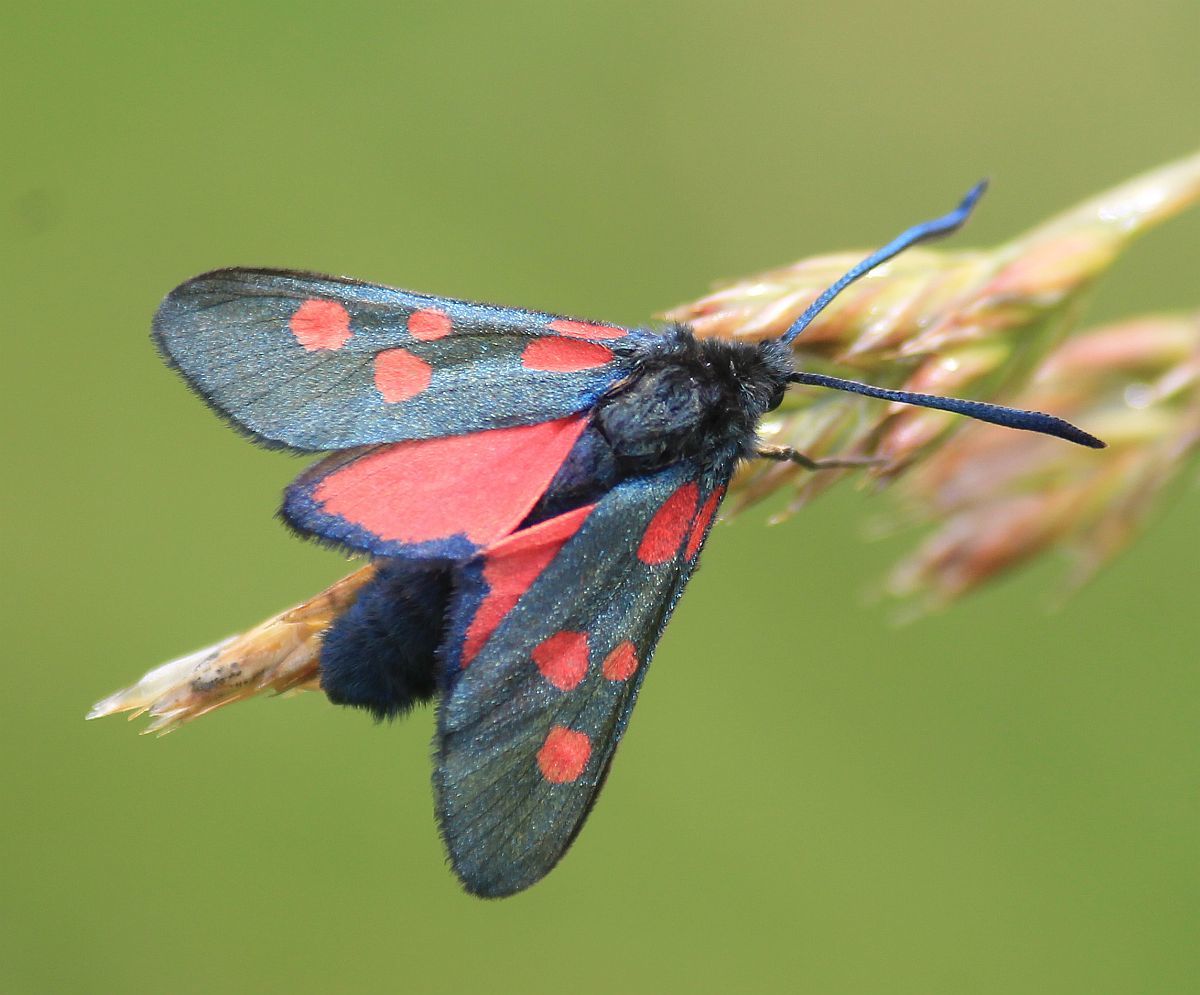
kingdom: Animalia
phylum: Arthropoda
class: Insecta
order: Lepidoptera
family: Zygaenidae
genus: Zygaena
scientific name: Zygaena lonicerae
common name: Narrow-bordered five-spot burnet
